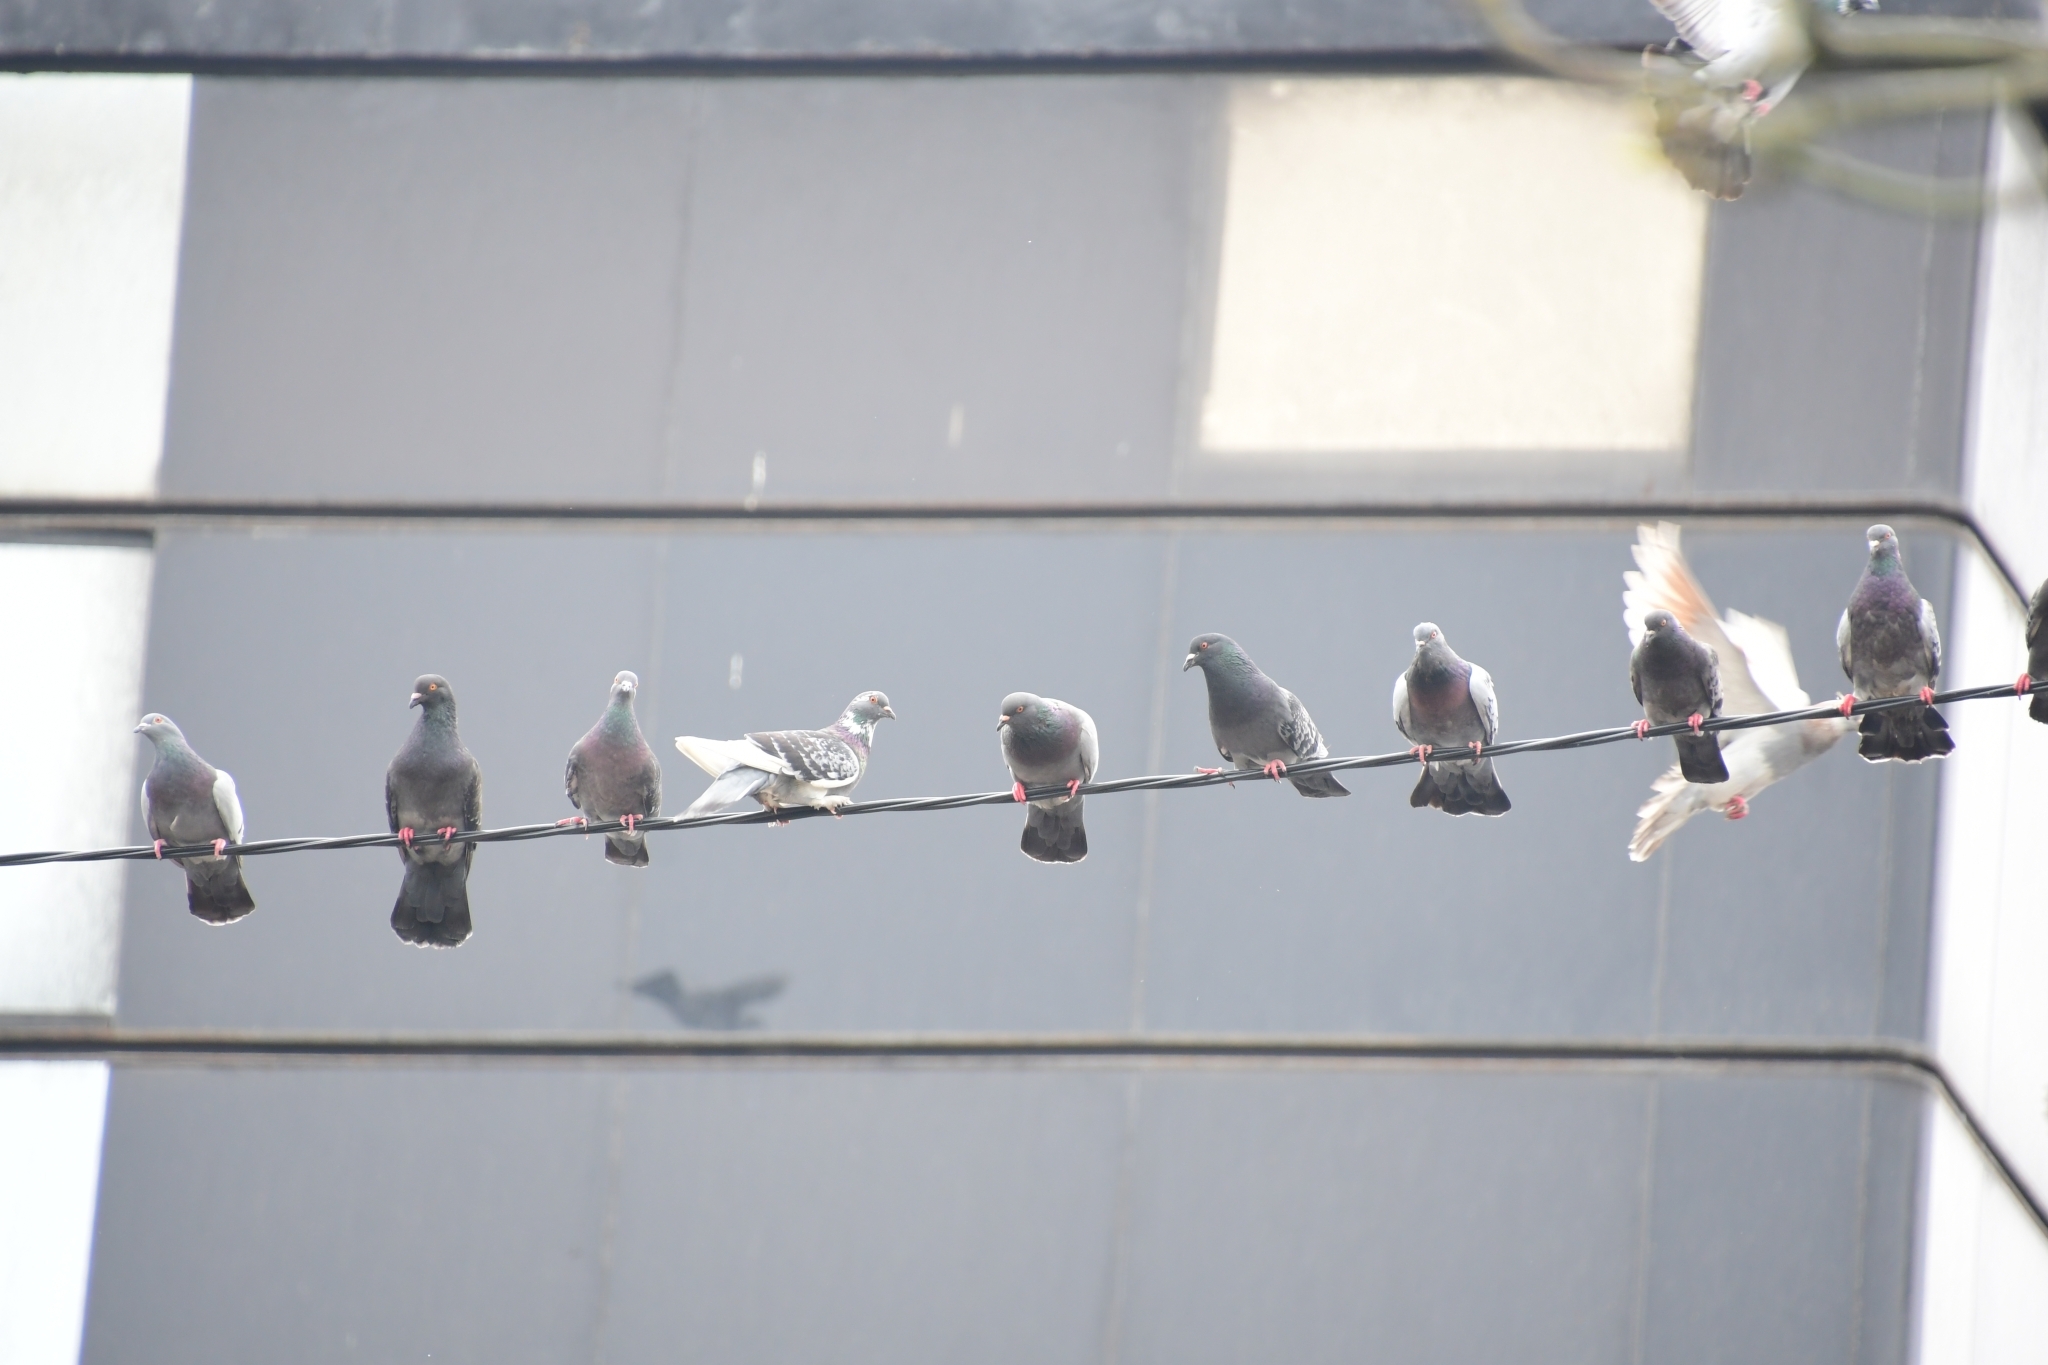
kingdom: Animalia
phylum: Chordata
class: Aves
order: Columbiformes
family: Columbidae
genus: Columba
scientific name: Columba livia
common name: Rock pigeon
